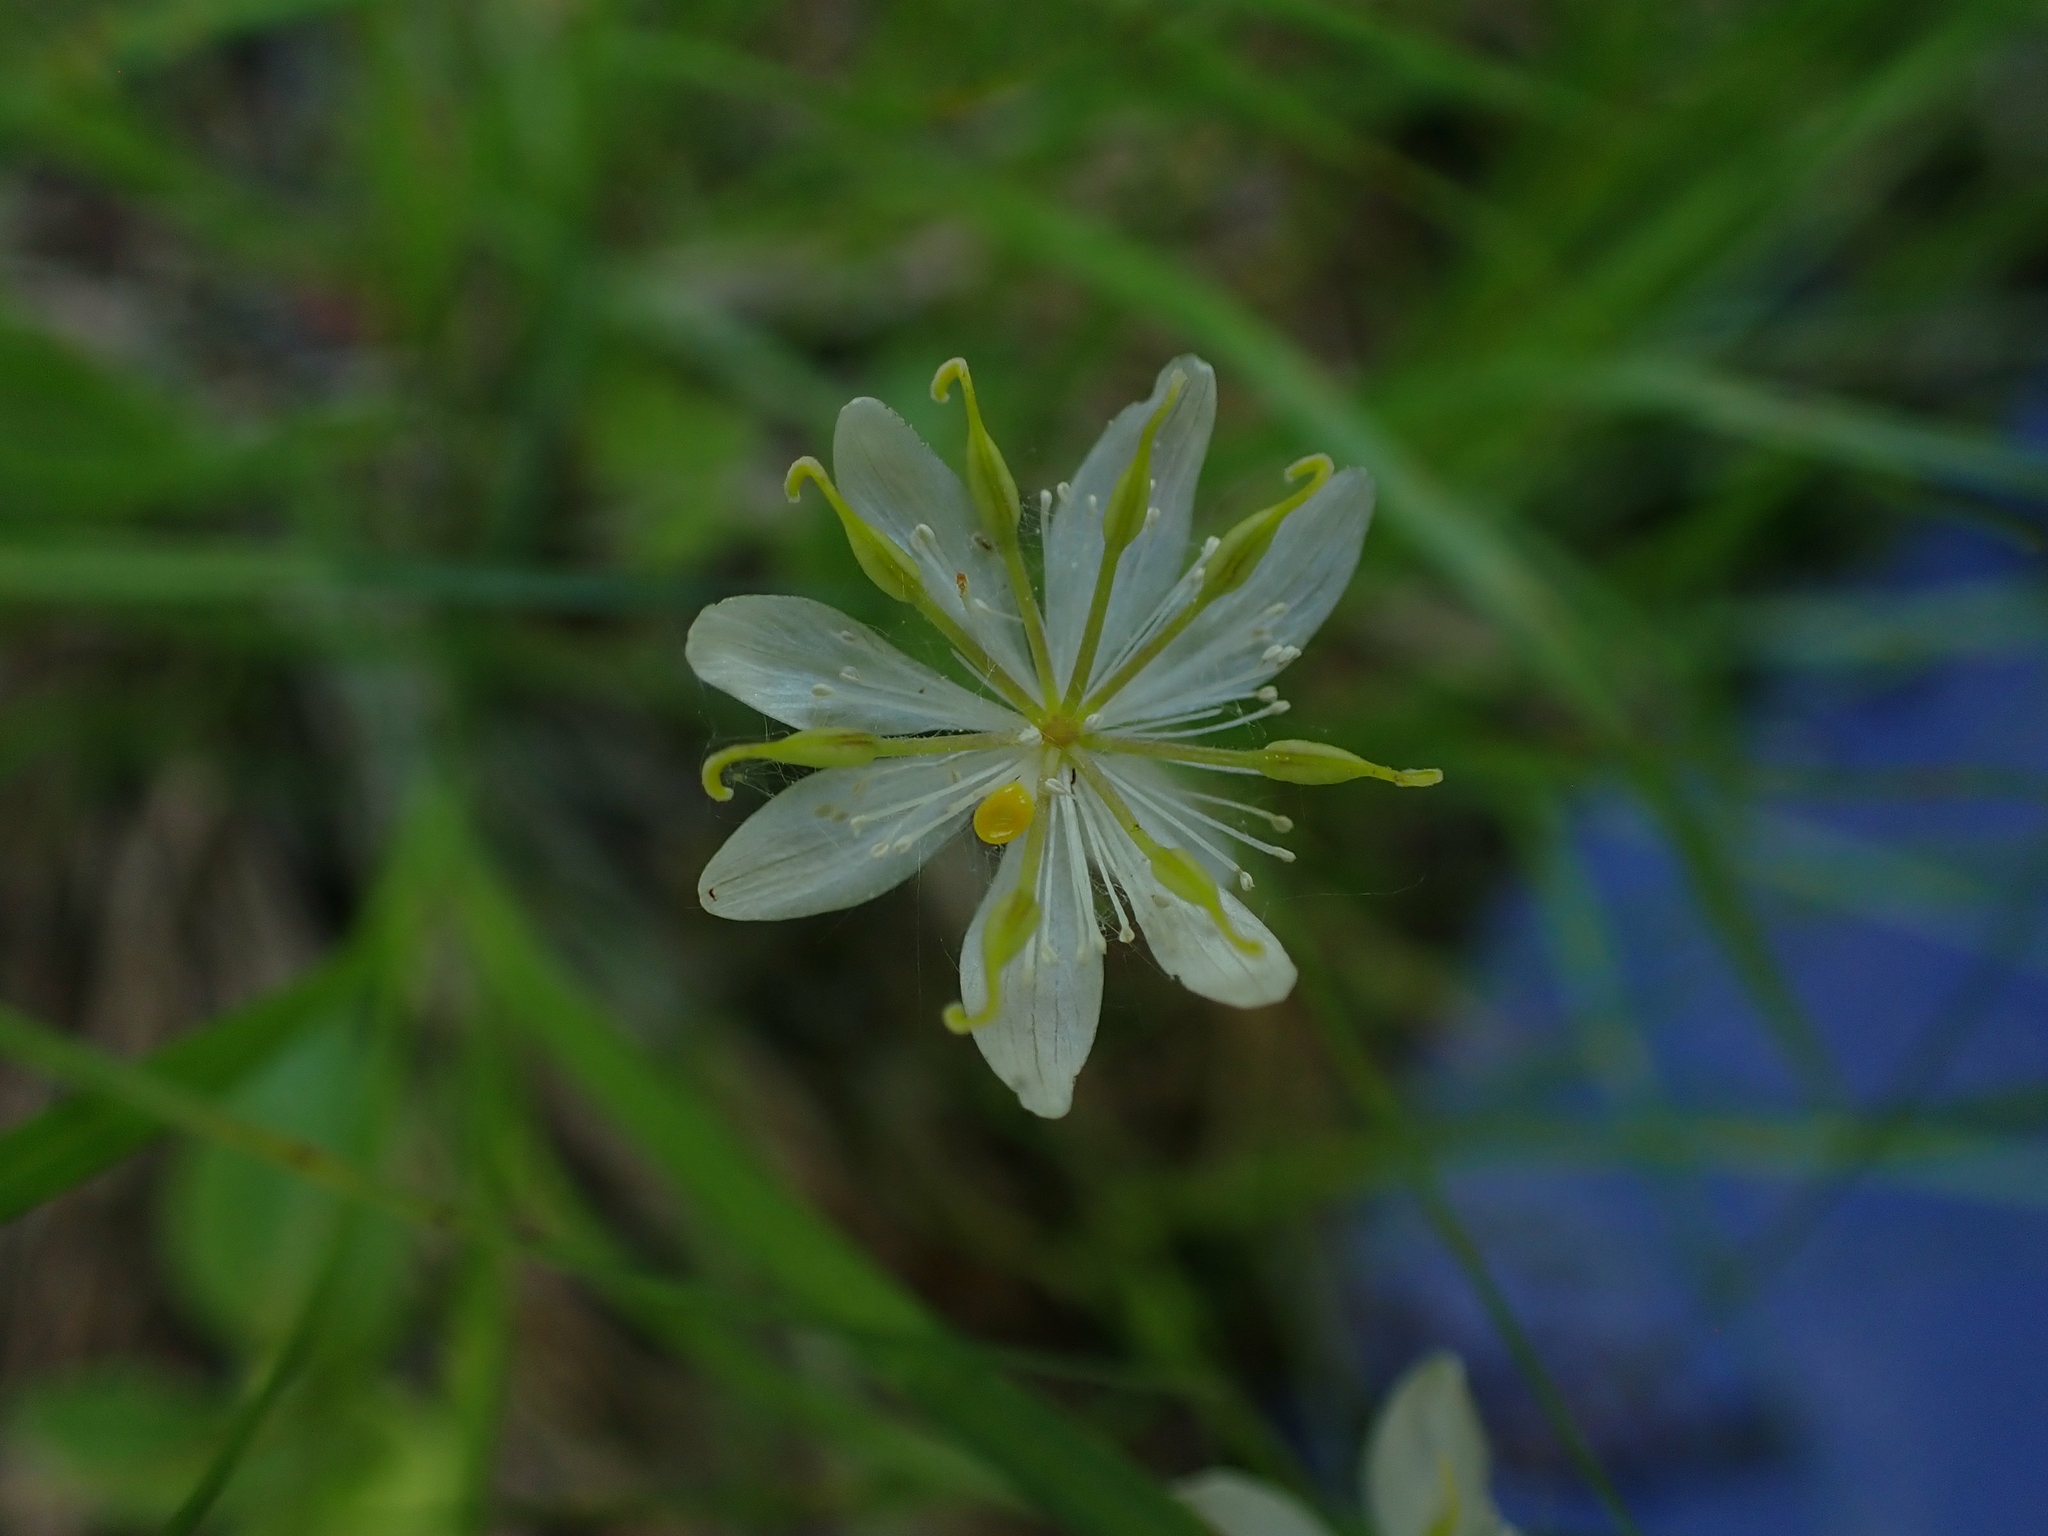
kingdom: Plantae
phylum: Tracheophyta
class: Magnoliopsida
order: Ranunculales
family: Ranunculaceae
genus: Coptis
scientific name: Coptis trifolia
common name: Canker-root
